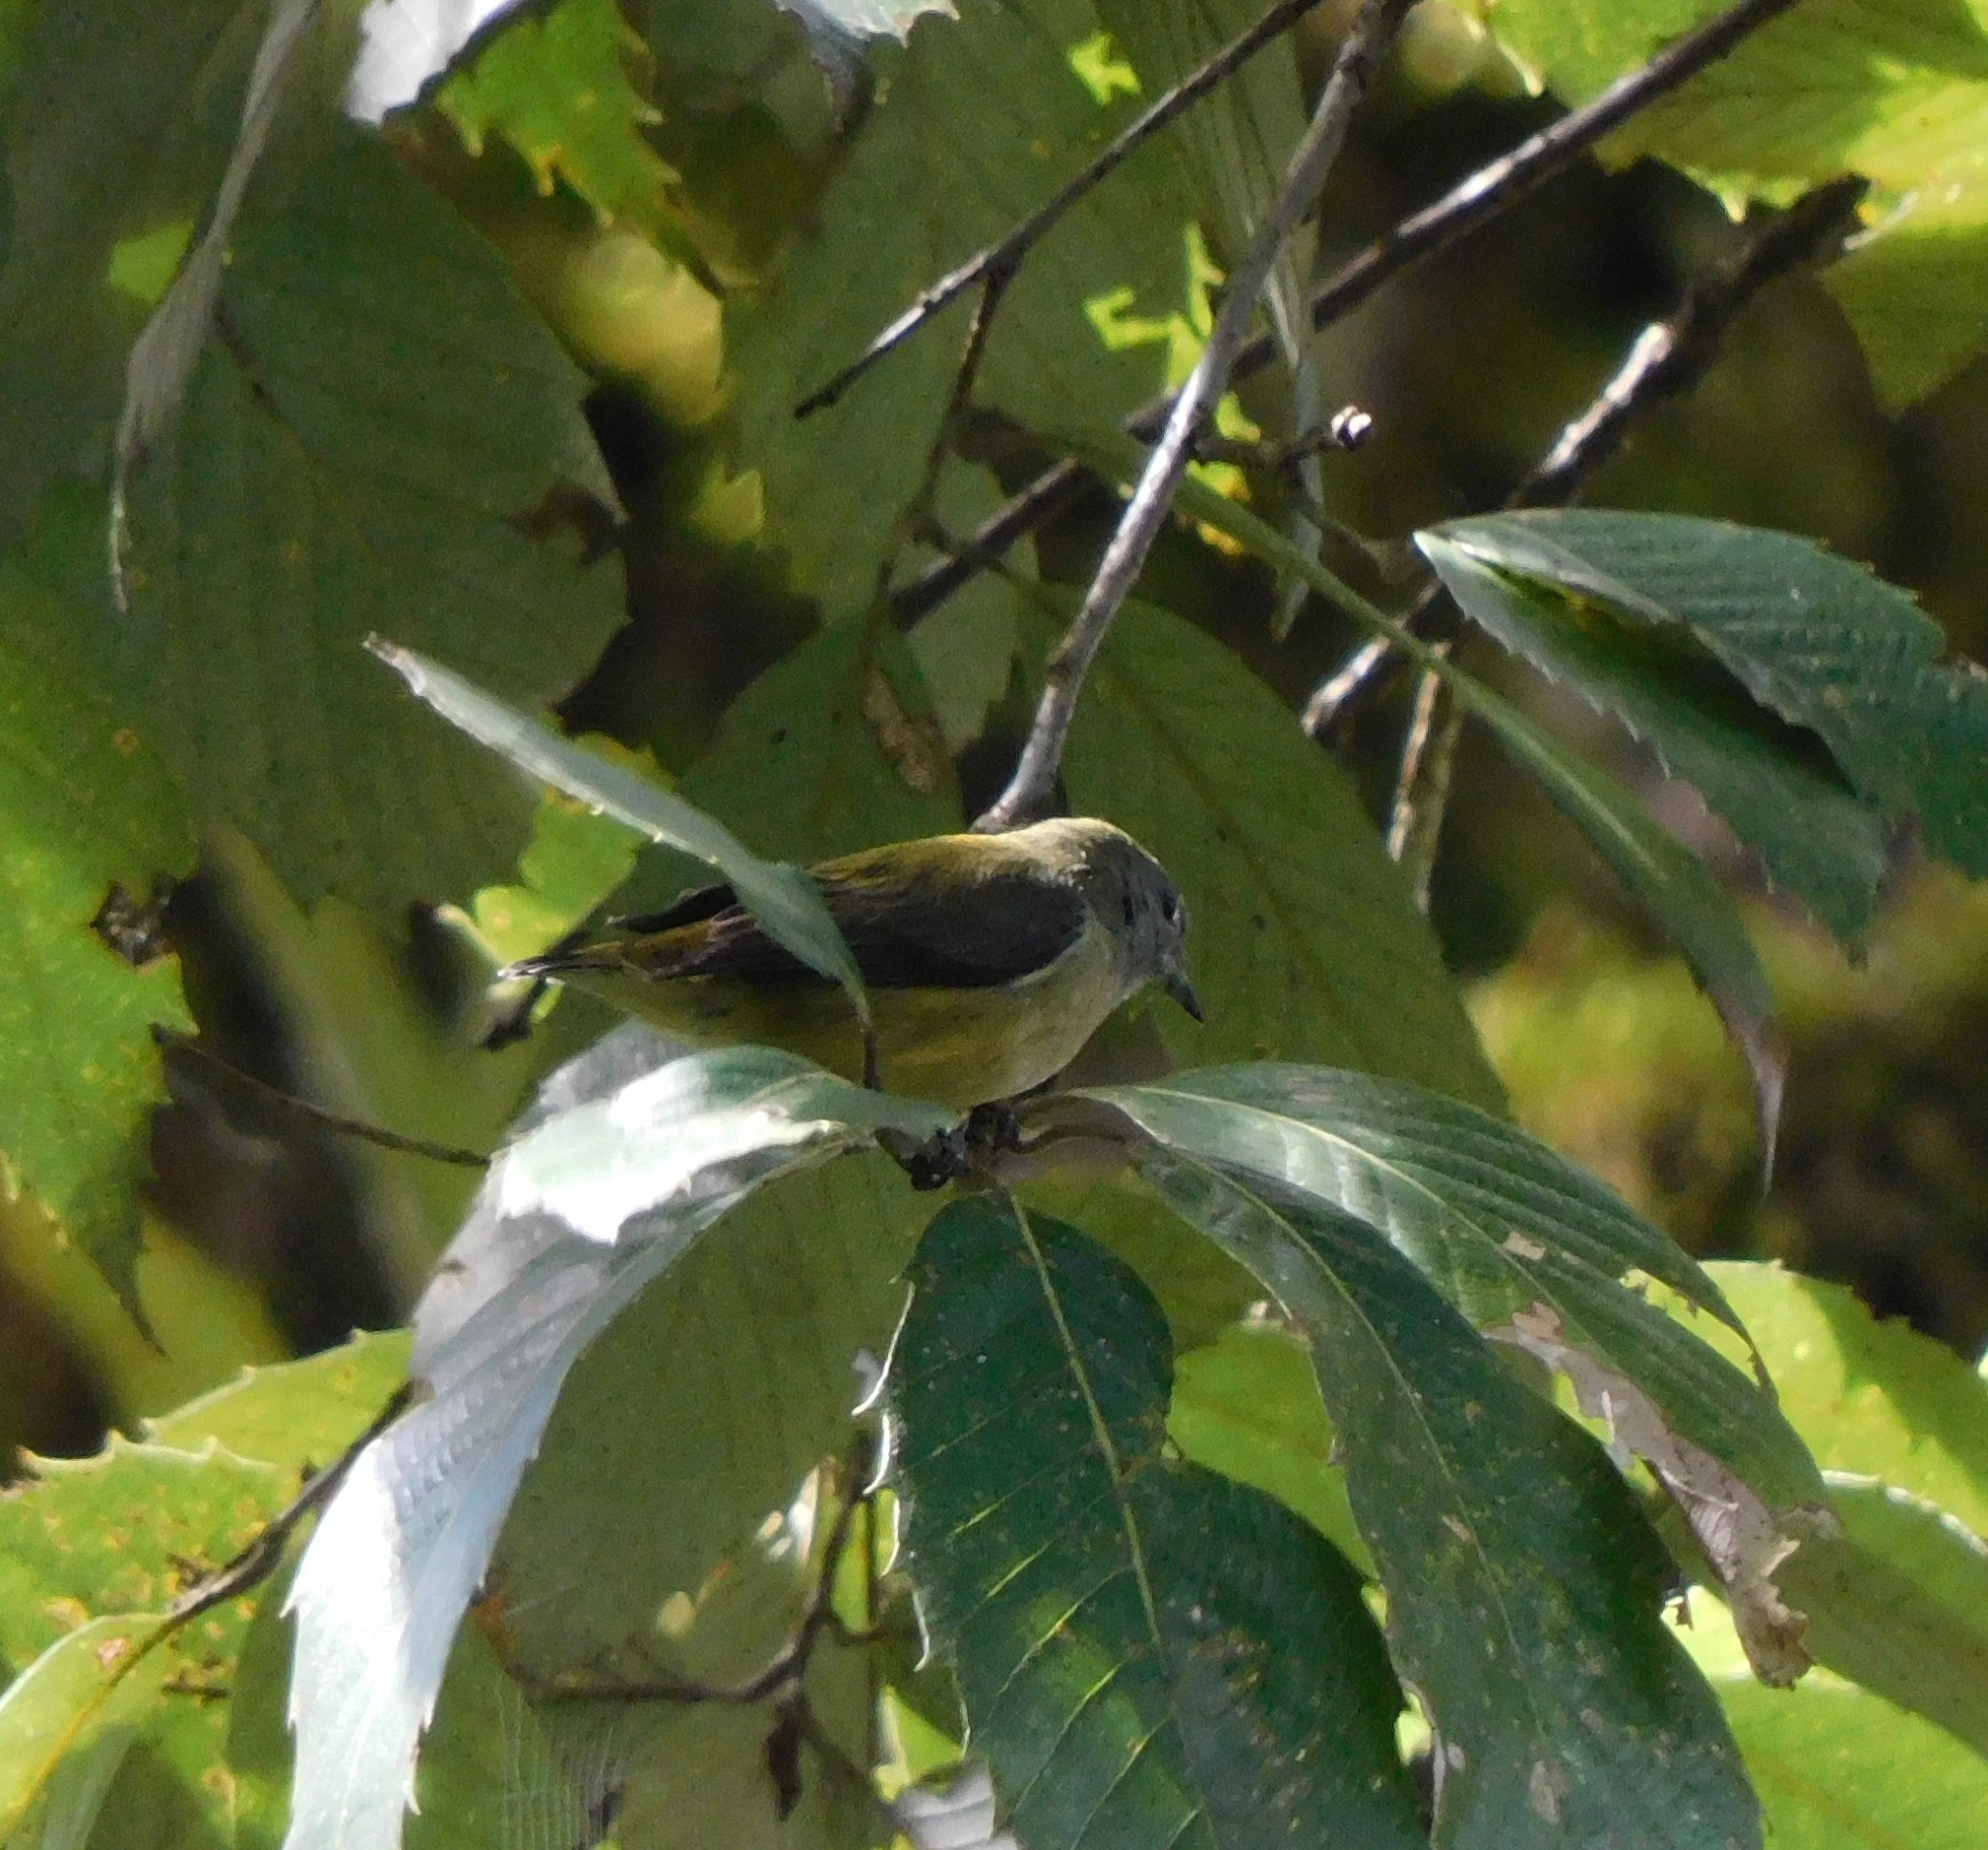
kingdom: Animalia
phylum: Chordata
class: Aves
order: Passeriformes
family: Dicaeidae
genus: Dicaeum
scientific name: Dicaeum ignipectus
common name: Fire-breasted flowerpecker
